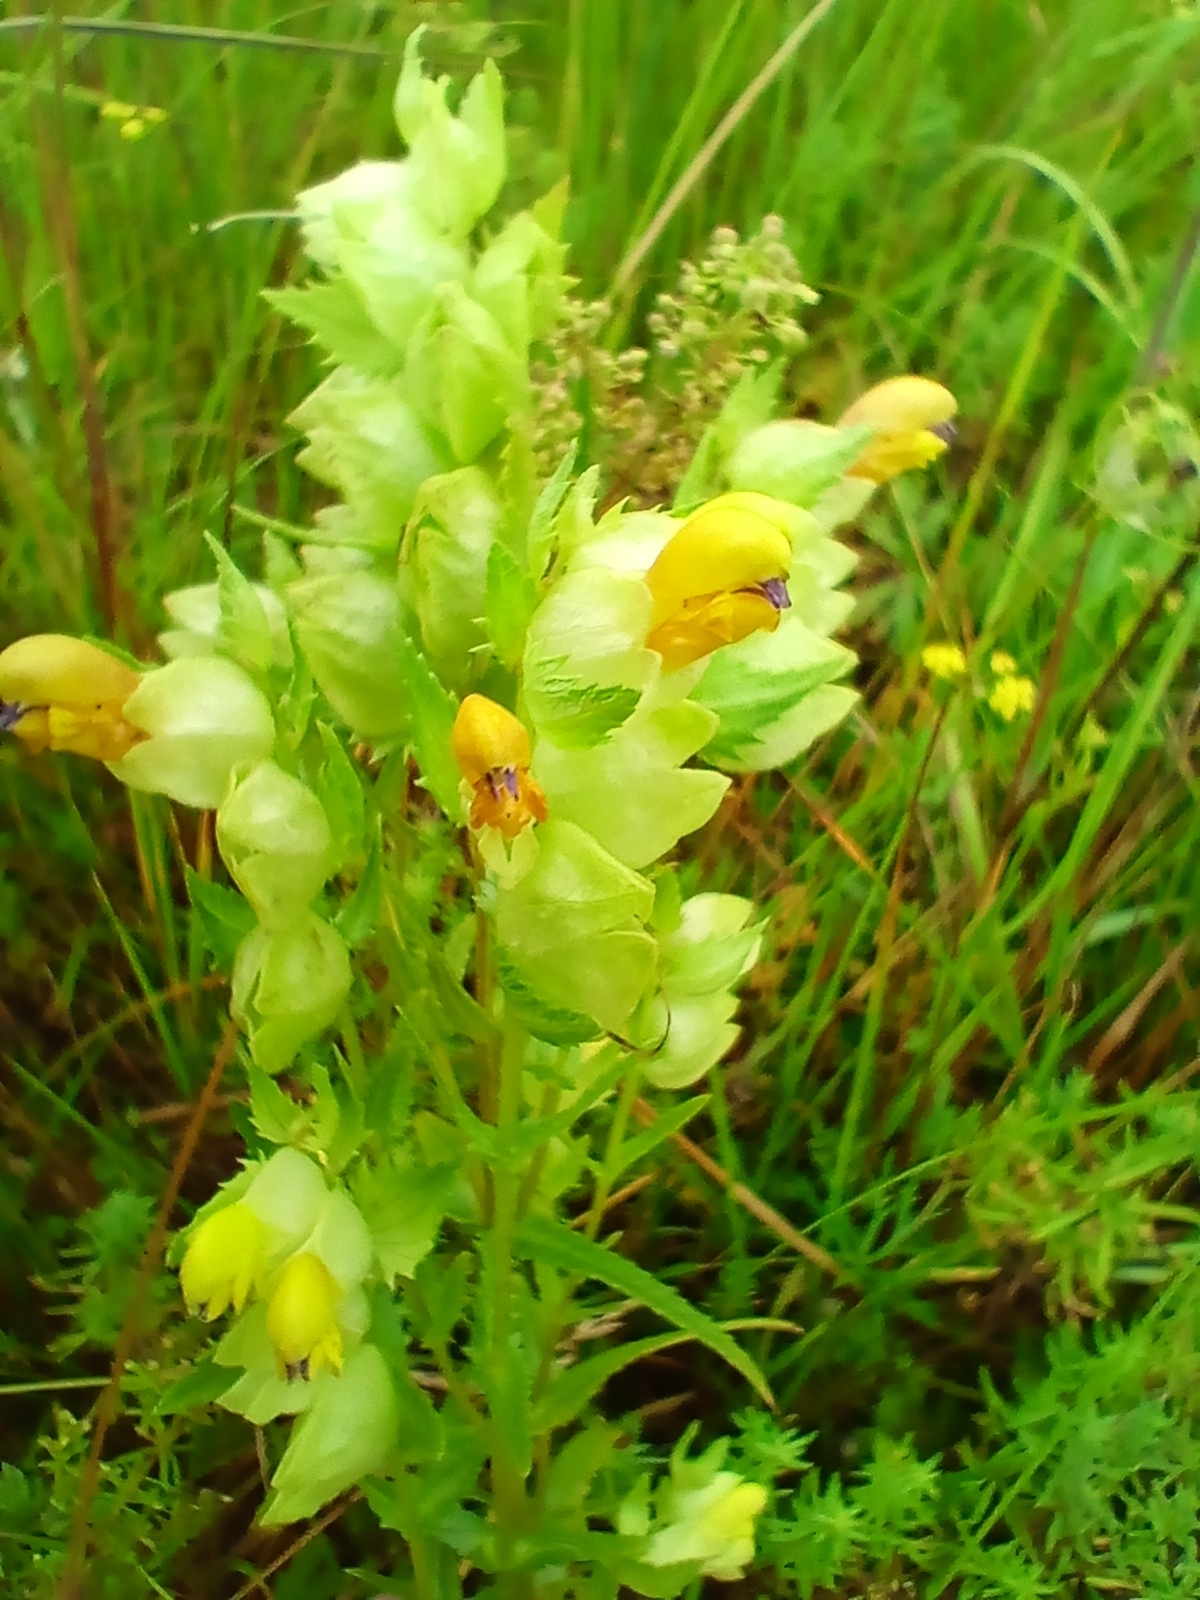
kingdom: Plantae
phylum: Tracheophyta
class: Magnoliopsida
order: Lamiales
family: Orobanchaceae
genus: Rhinanthus
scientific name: Rhinanthus serotinus
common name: Late-flowering yellow rattle
